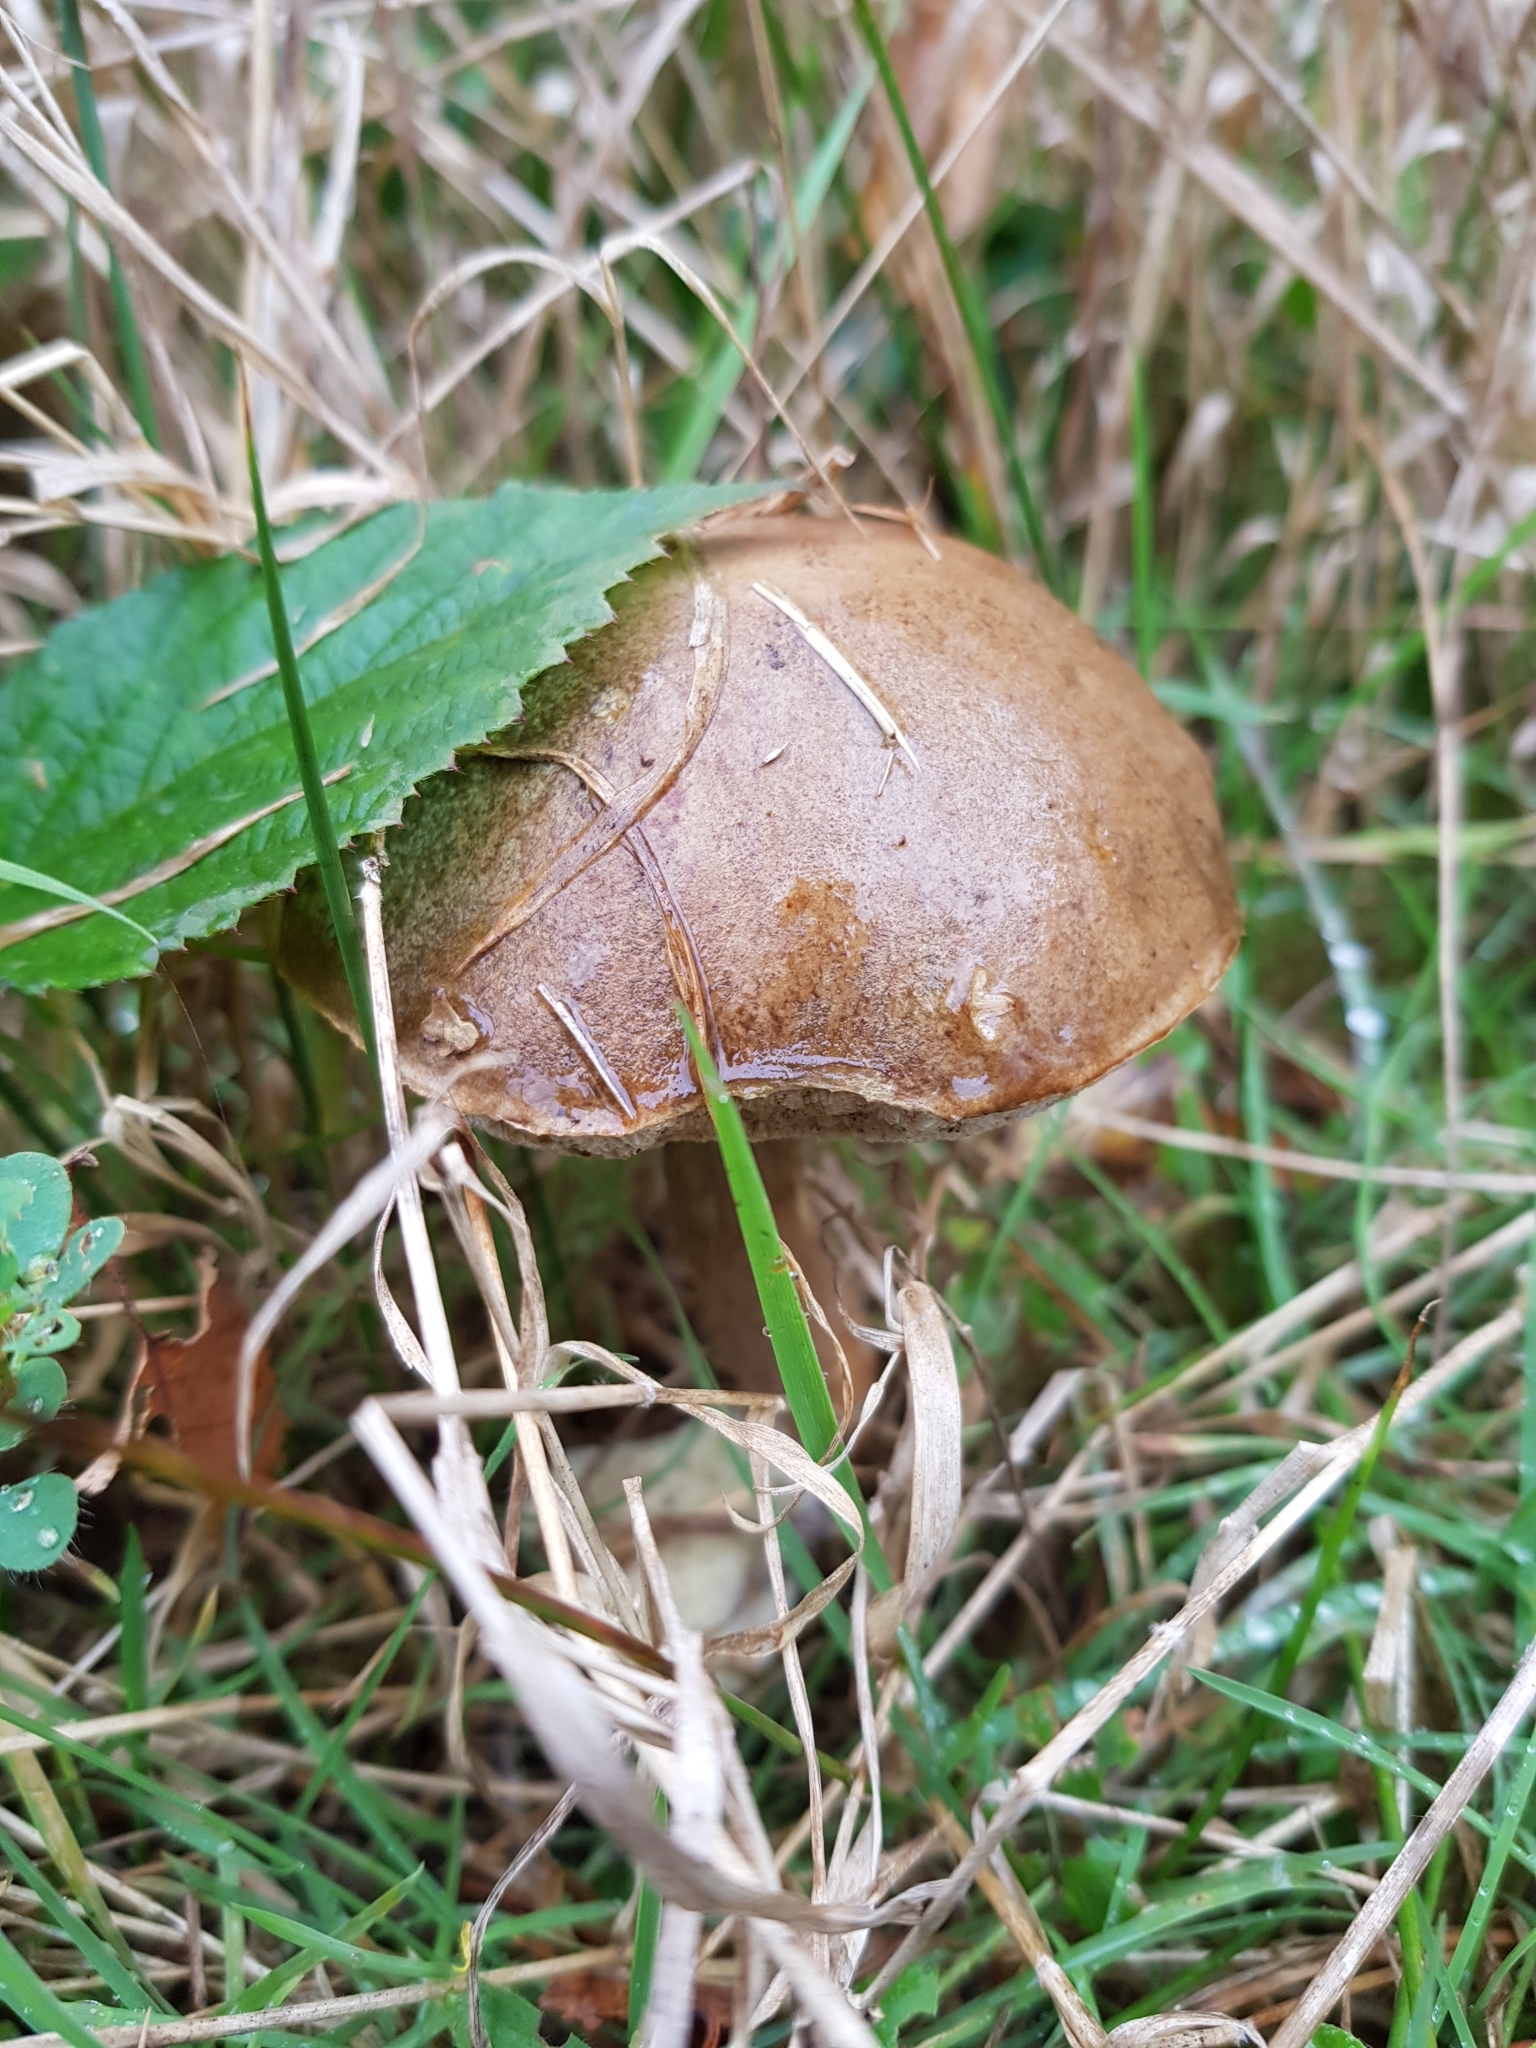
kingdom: Fungi
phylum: Basidiomycota
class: Agaricomycetes
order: Boletales
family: Boletaceae
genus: Leccinum
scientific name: Leccinum scabrum
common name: Blushing bolete
